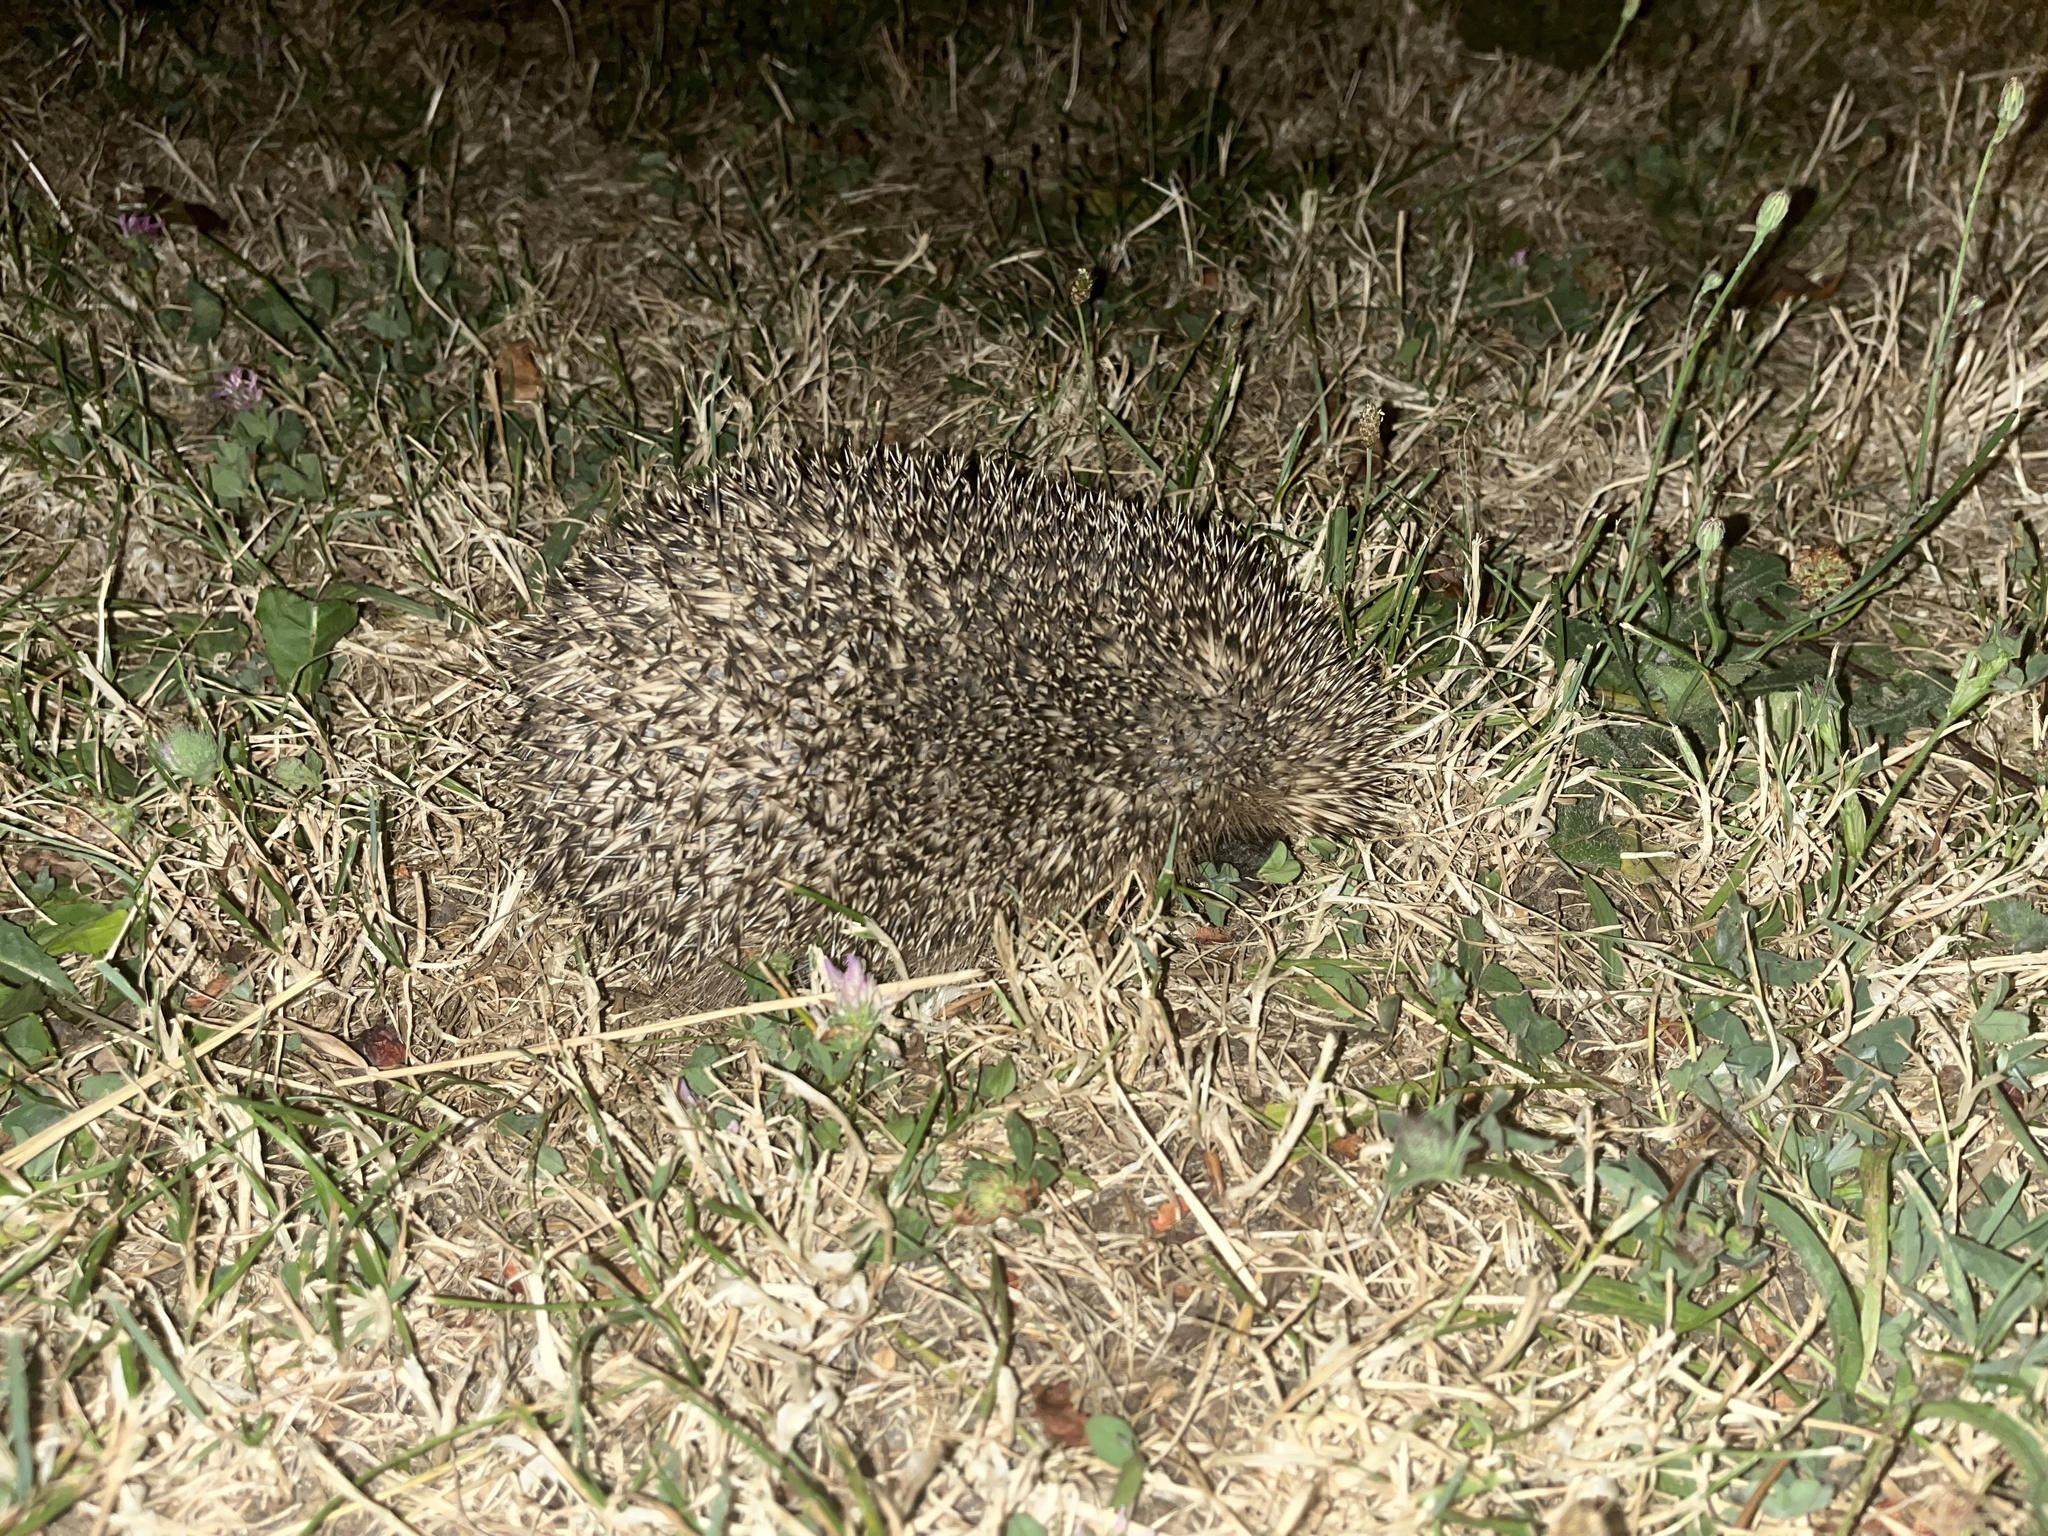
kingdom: Animalia
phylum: Chordata
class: Mammalia
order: Erinaceomorpha
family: Erinaceidae
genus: Erinaceus
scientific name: Erinaceus europaeus
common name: West european hedgehog
